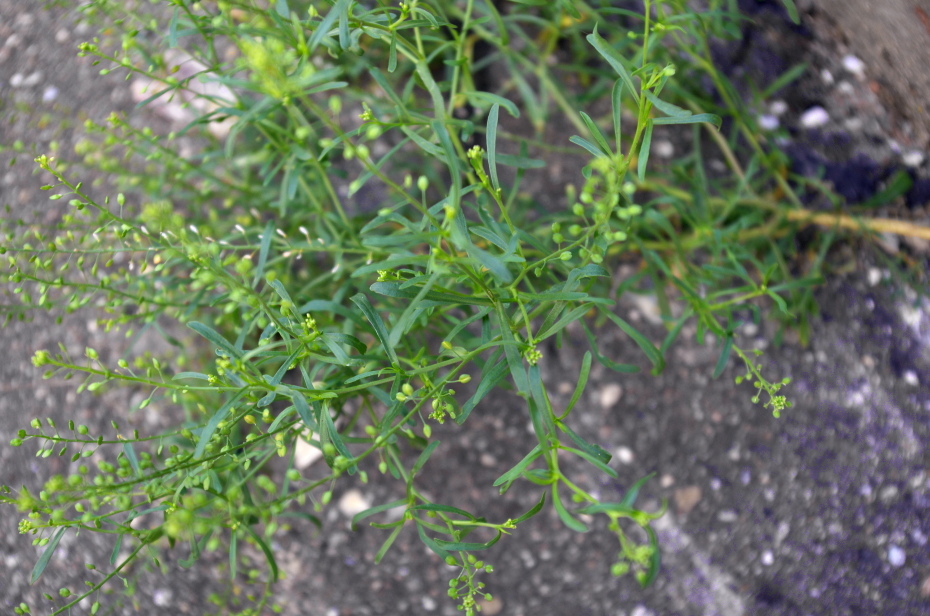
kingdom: Plantae
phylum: Tracheophyta
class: Magnoliopsida
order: Brassicales
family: Brassicaceae
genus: Lepidium
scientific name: Lepidium ruderale
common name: Narrow-leaved pepperwort
